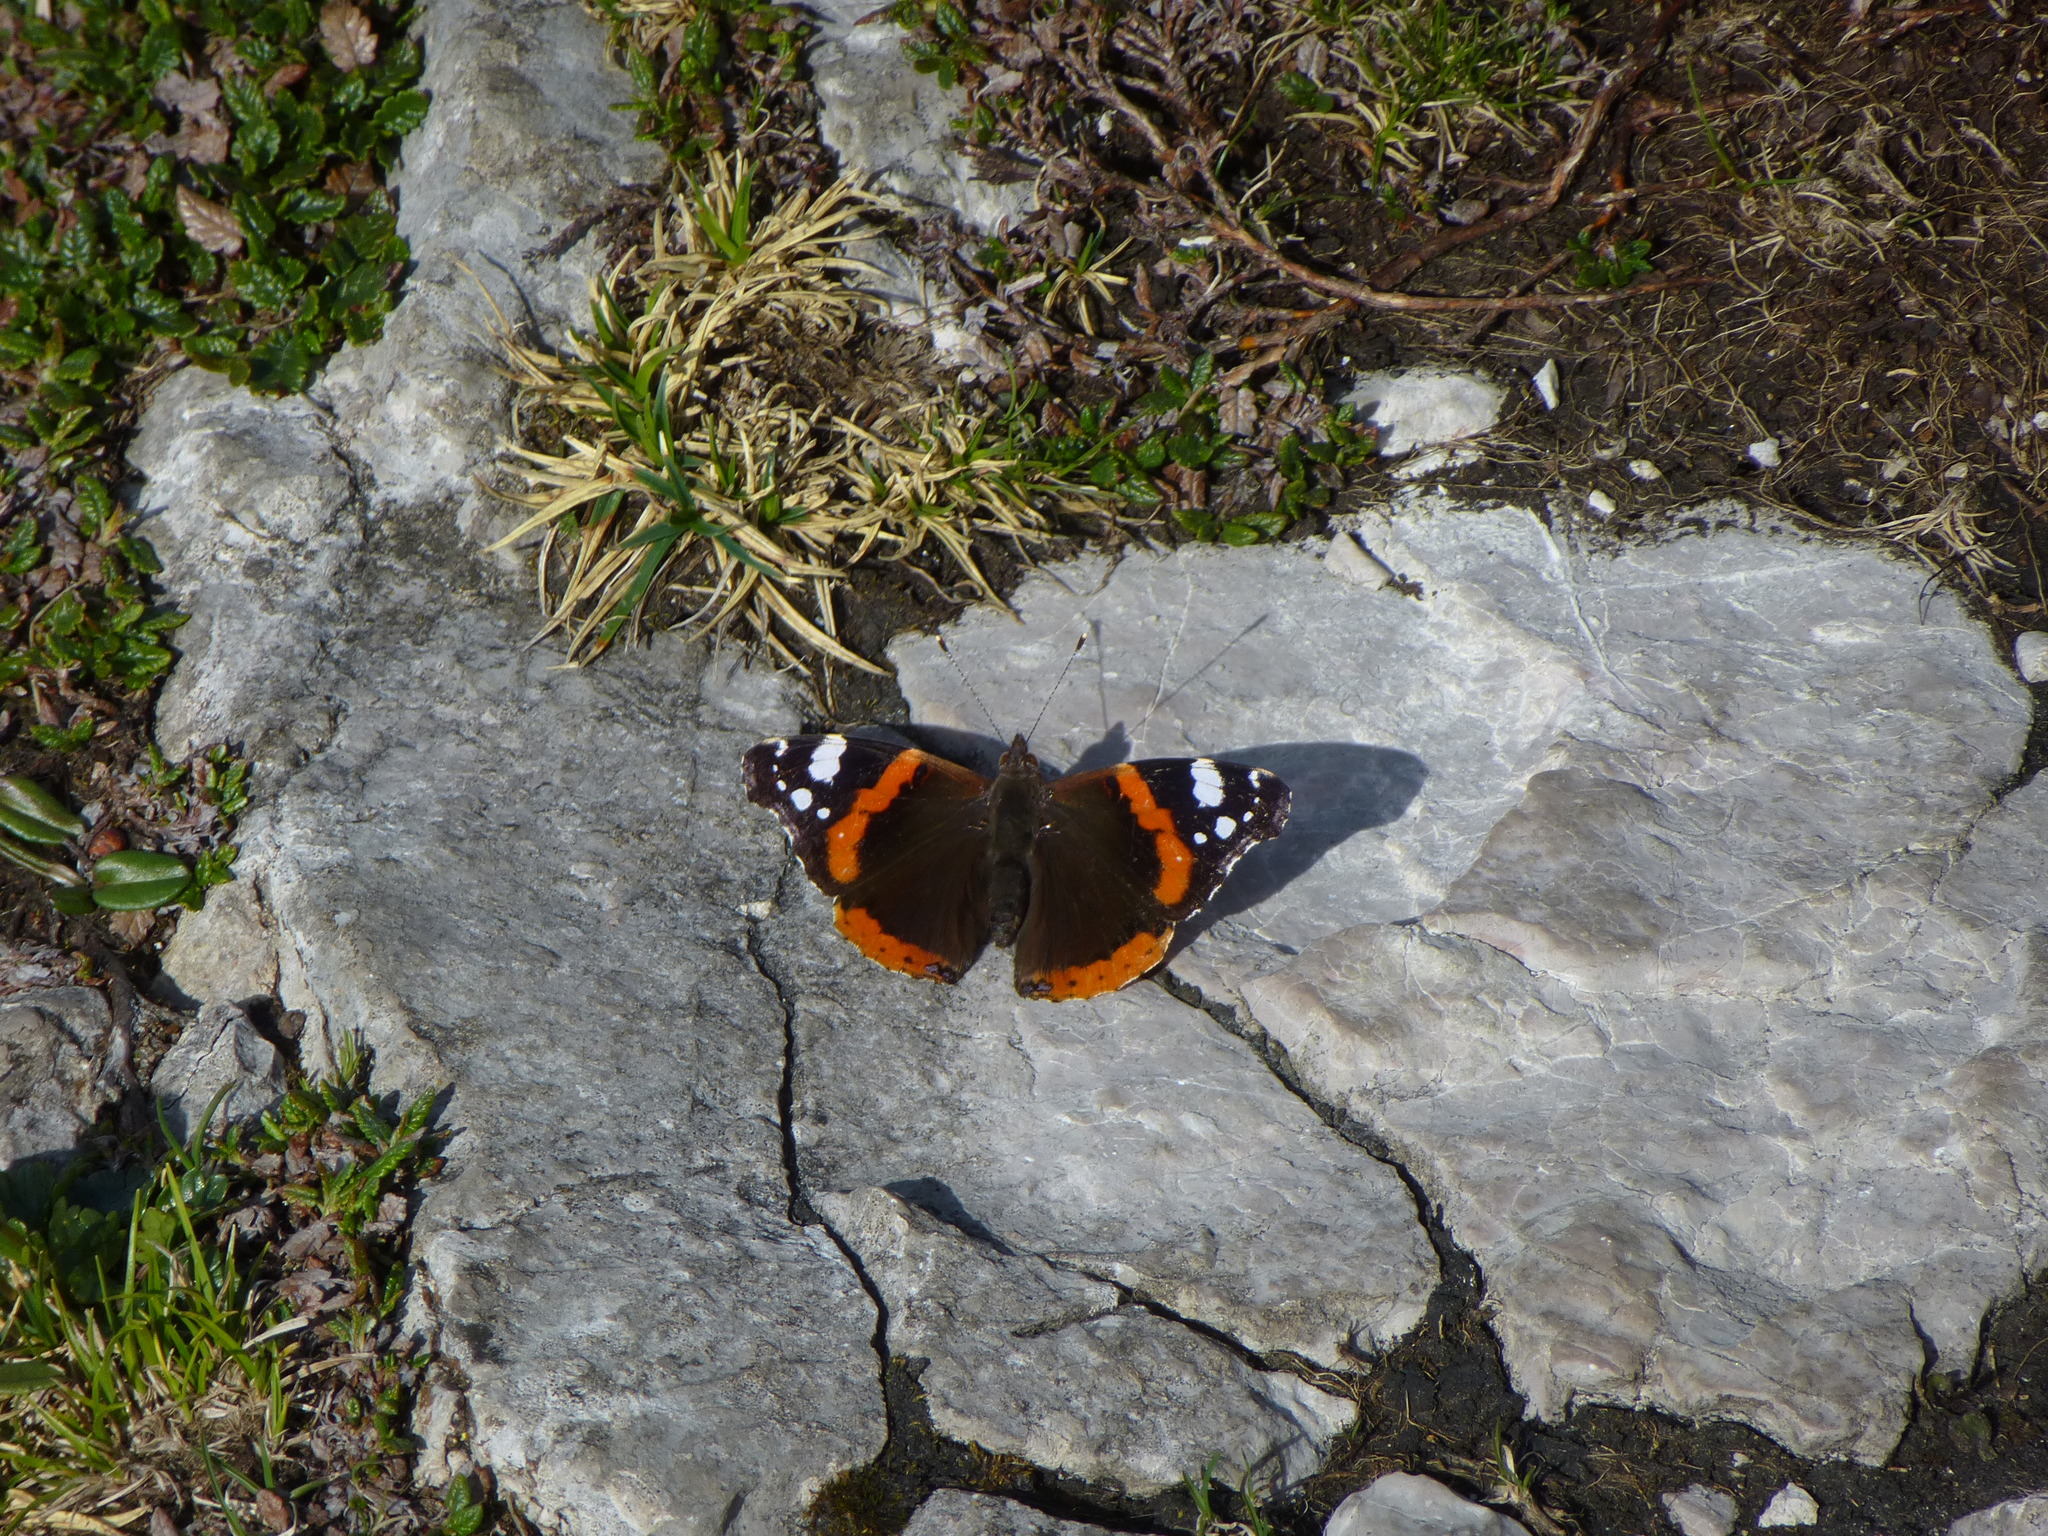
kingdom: Animalia
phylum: Arthropoda
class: Insecta
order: Lepidoptera
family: Nymphalidae
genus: Vanessa
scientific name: Vanessa atalanta
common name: Red admiral
